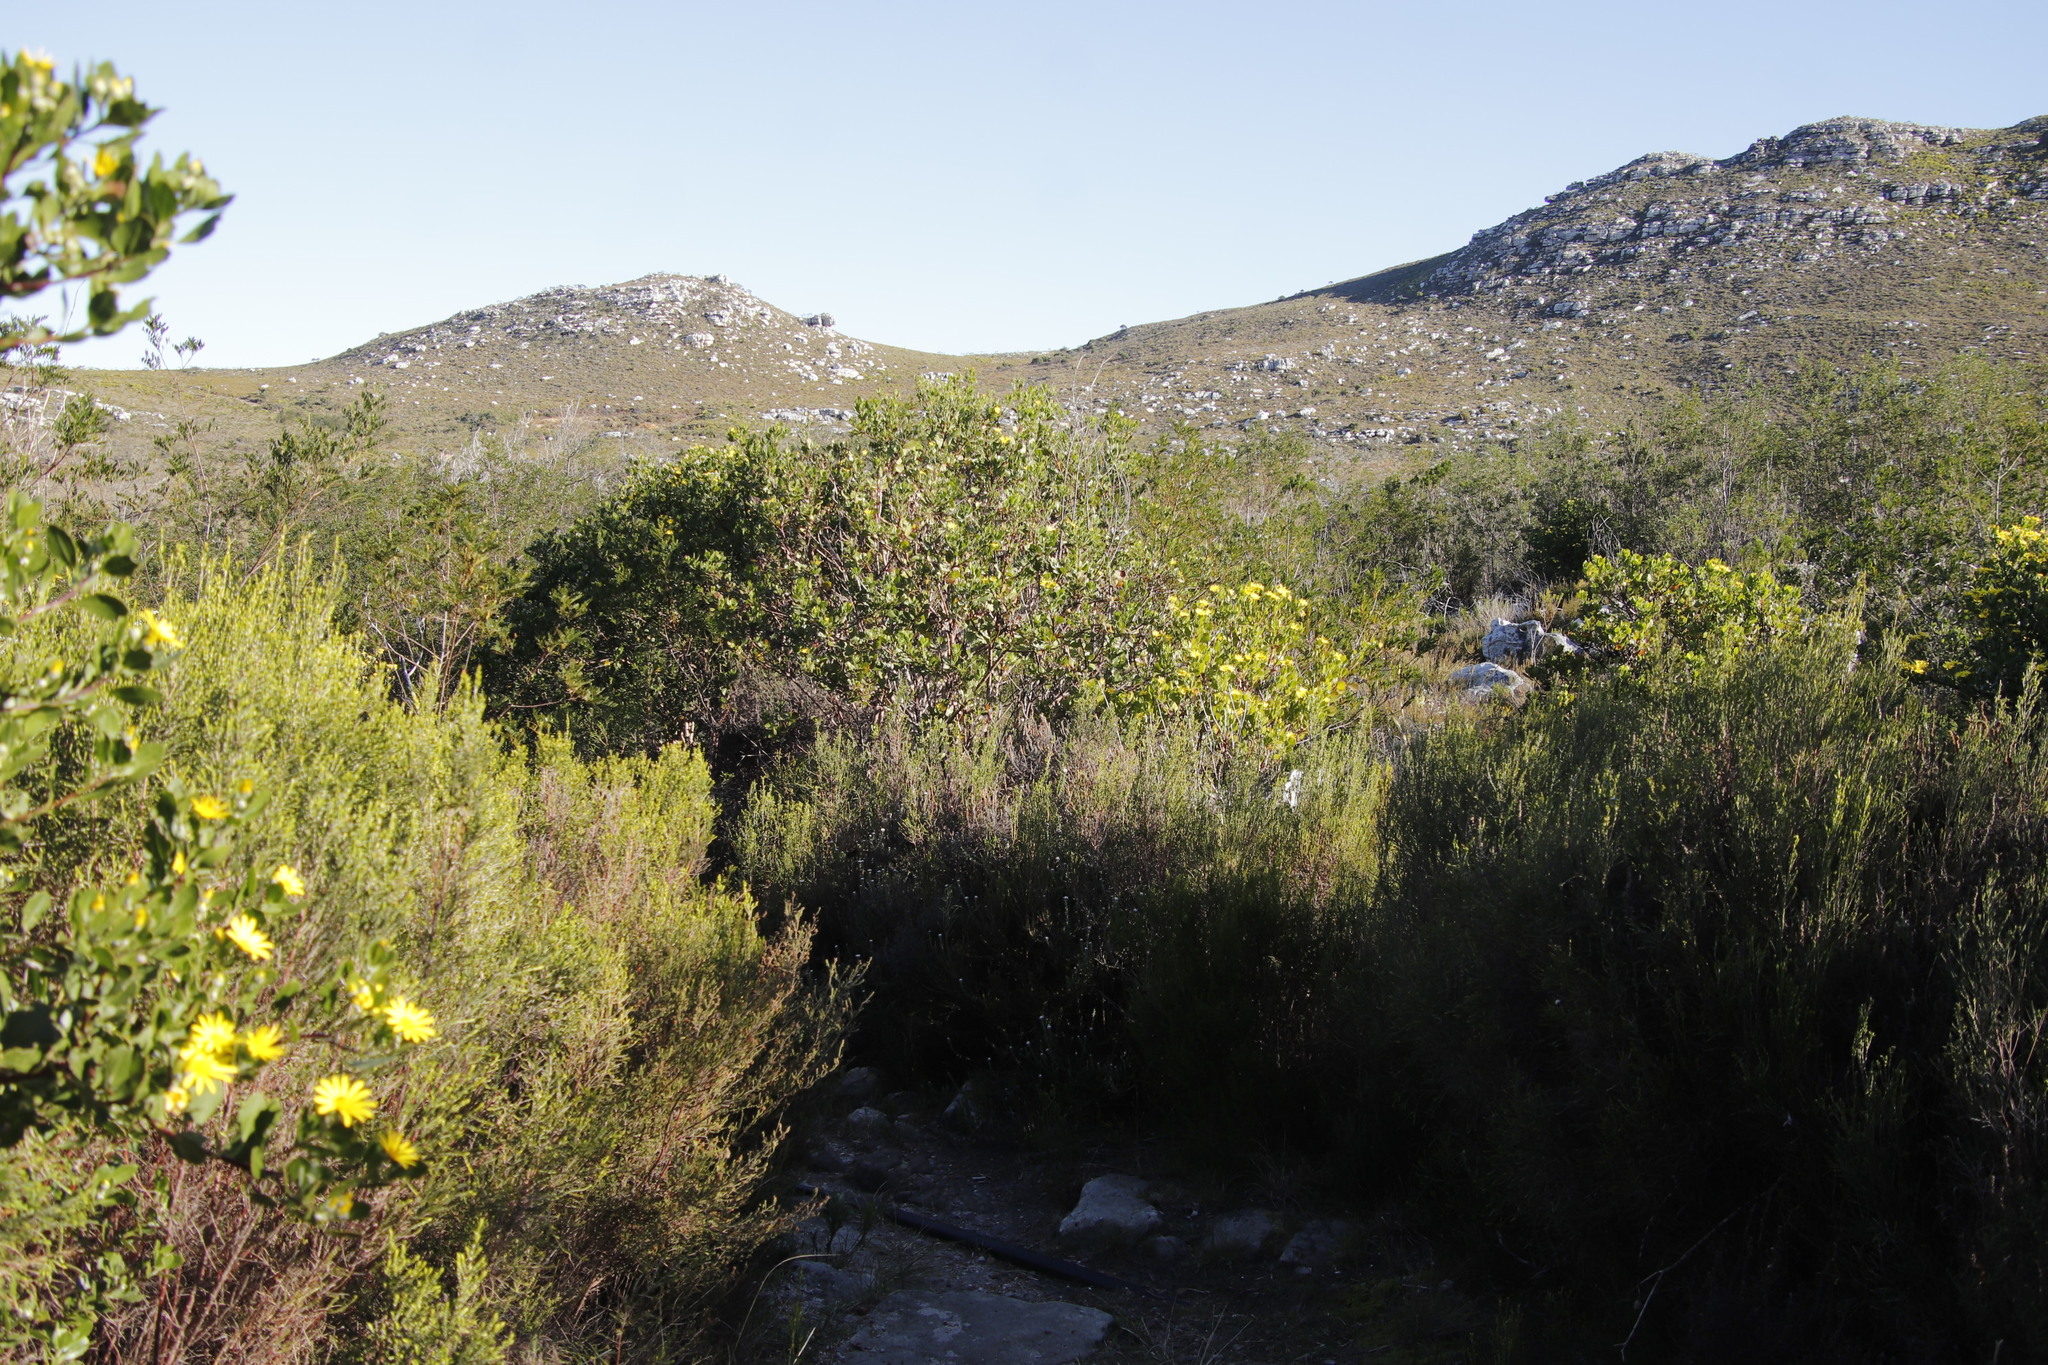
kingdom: Plantae
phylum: Tracheophyta
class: Magnoliopsida
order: Malvales
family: Thymelaeaceae
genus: Passerina
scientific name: Passerina corymbosa
